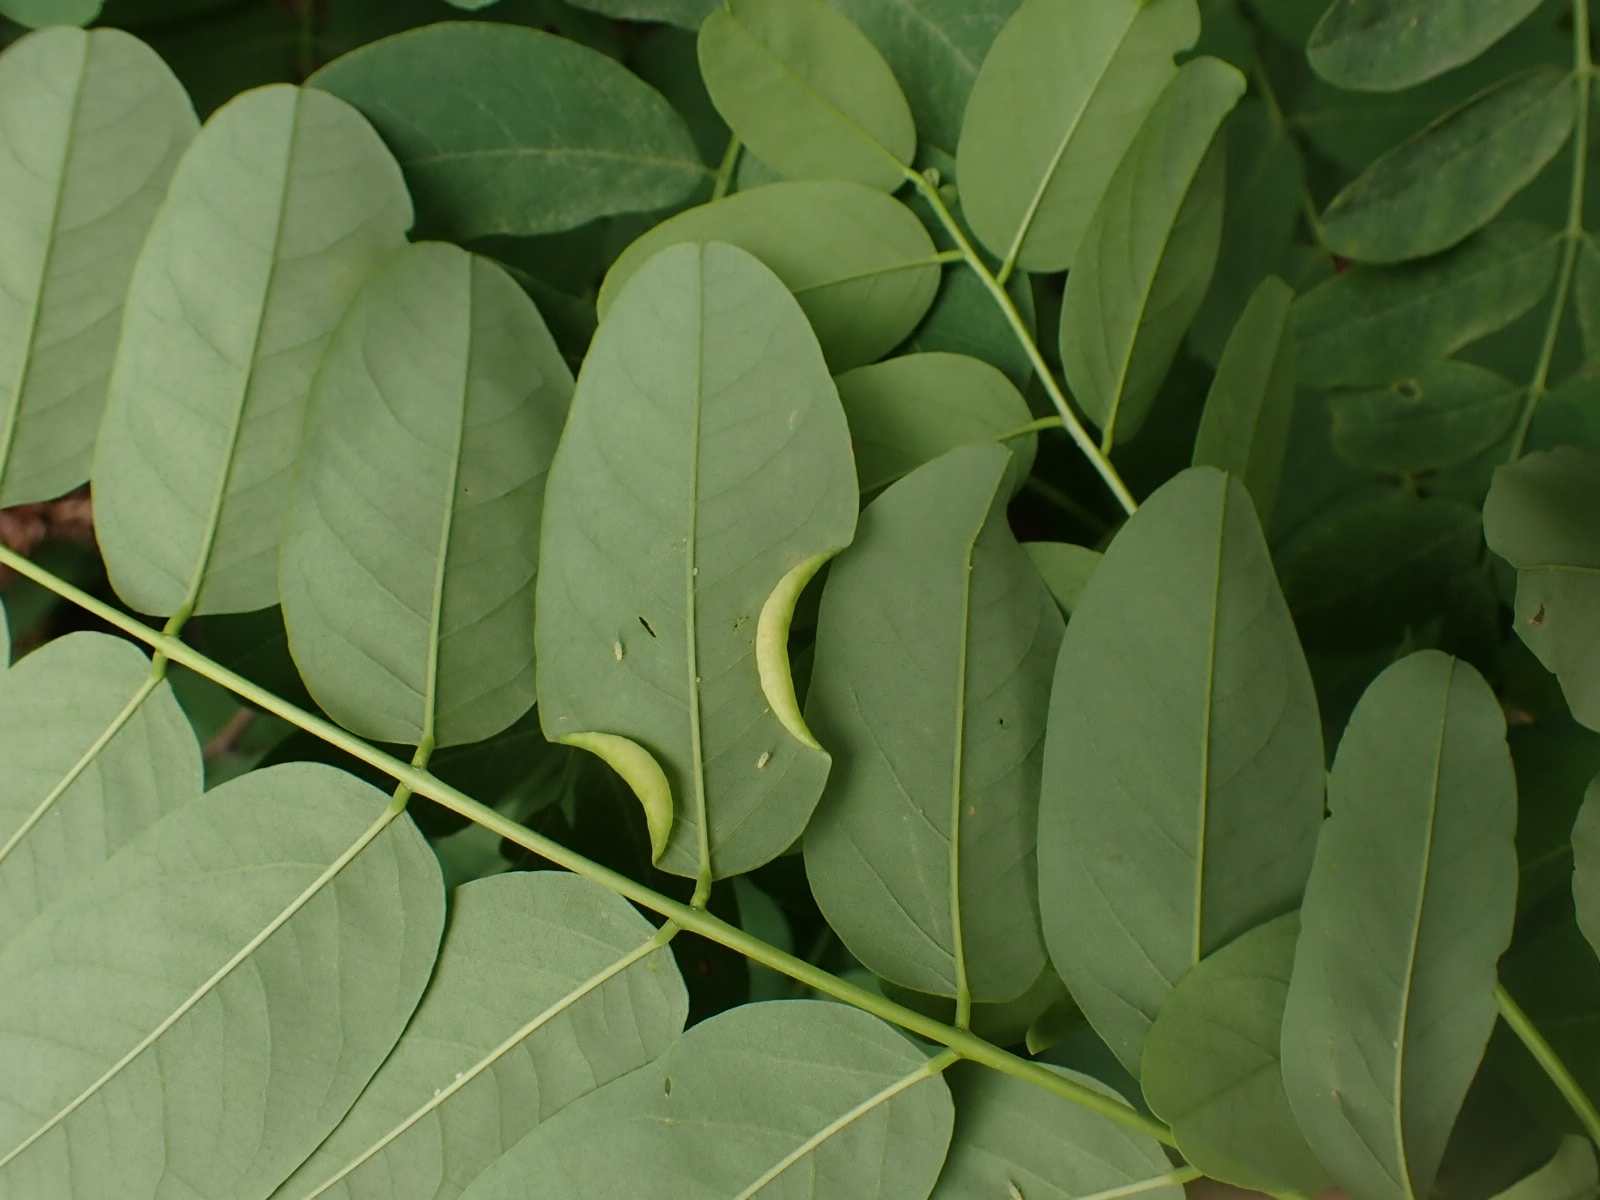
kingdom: Animalia
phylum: Arthropoda
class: Insecta
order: Diptera
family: Cecidomyiidae
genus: Obolodiplosis
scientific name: Obolodiplosis robiniae
